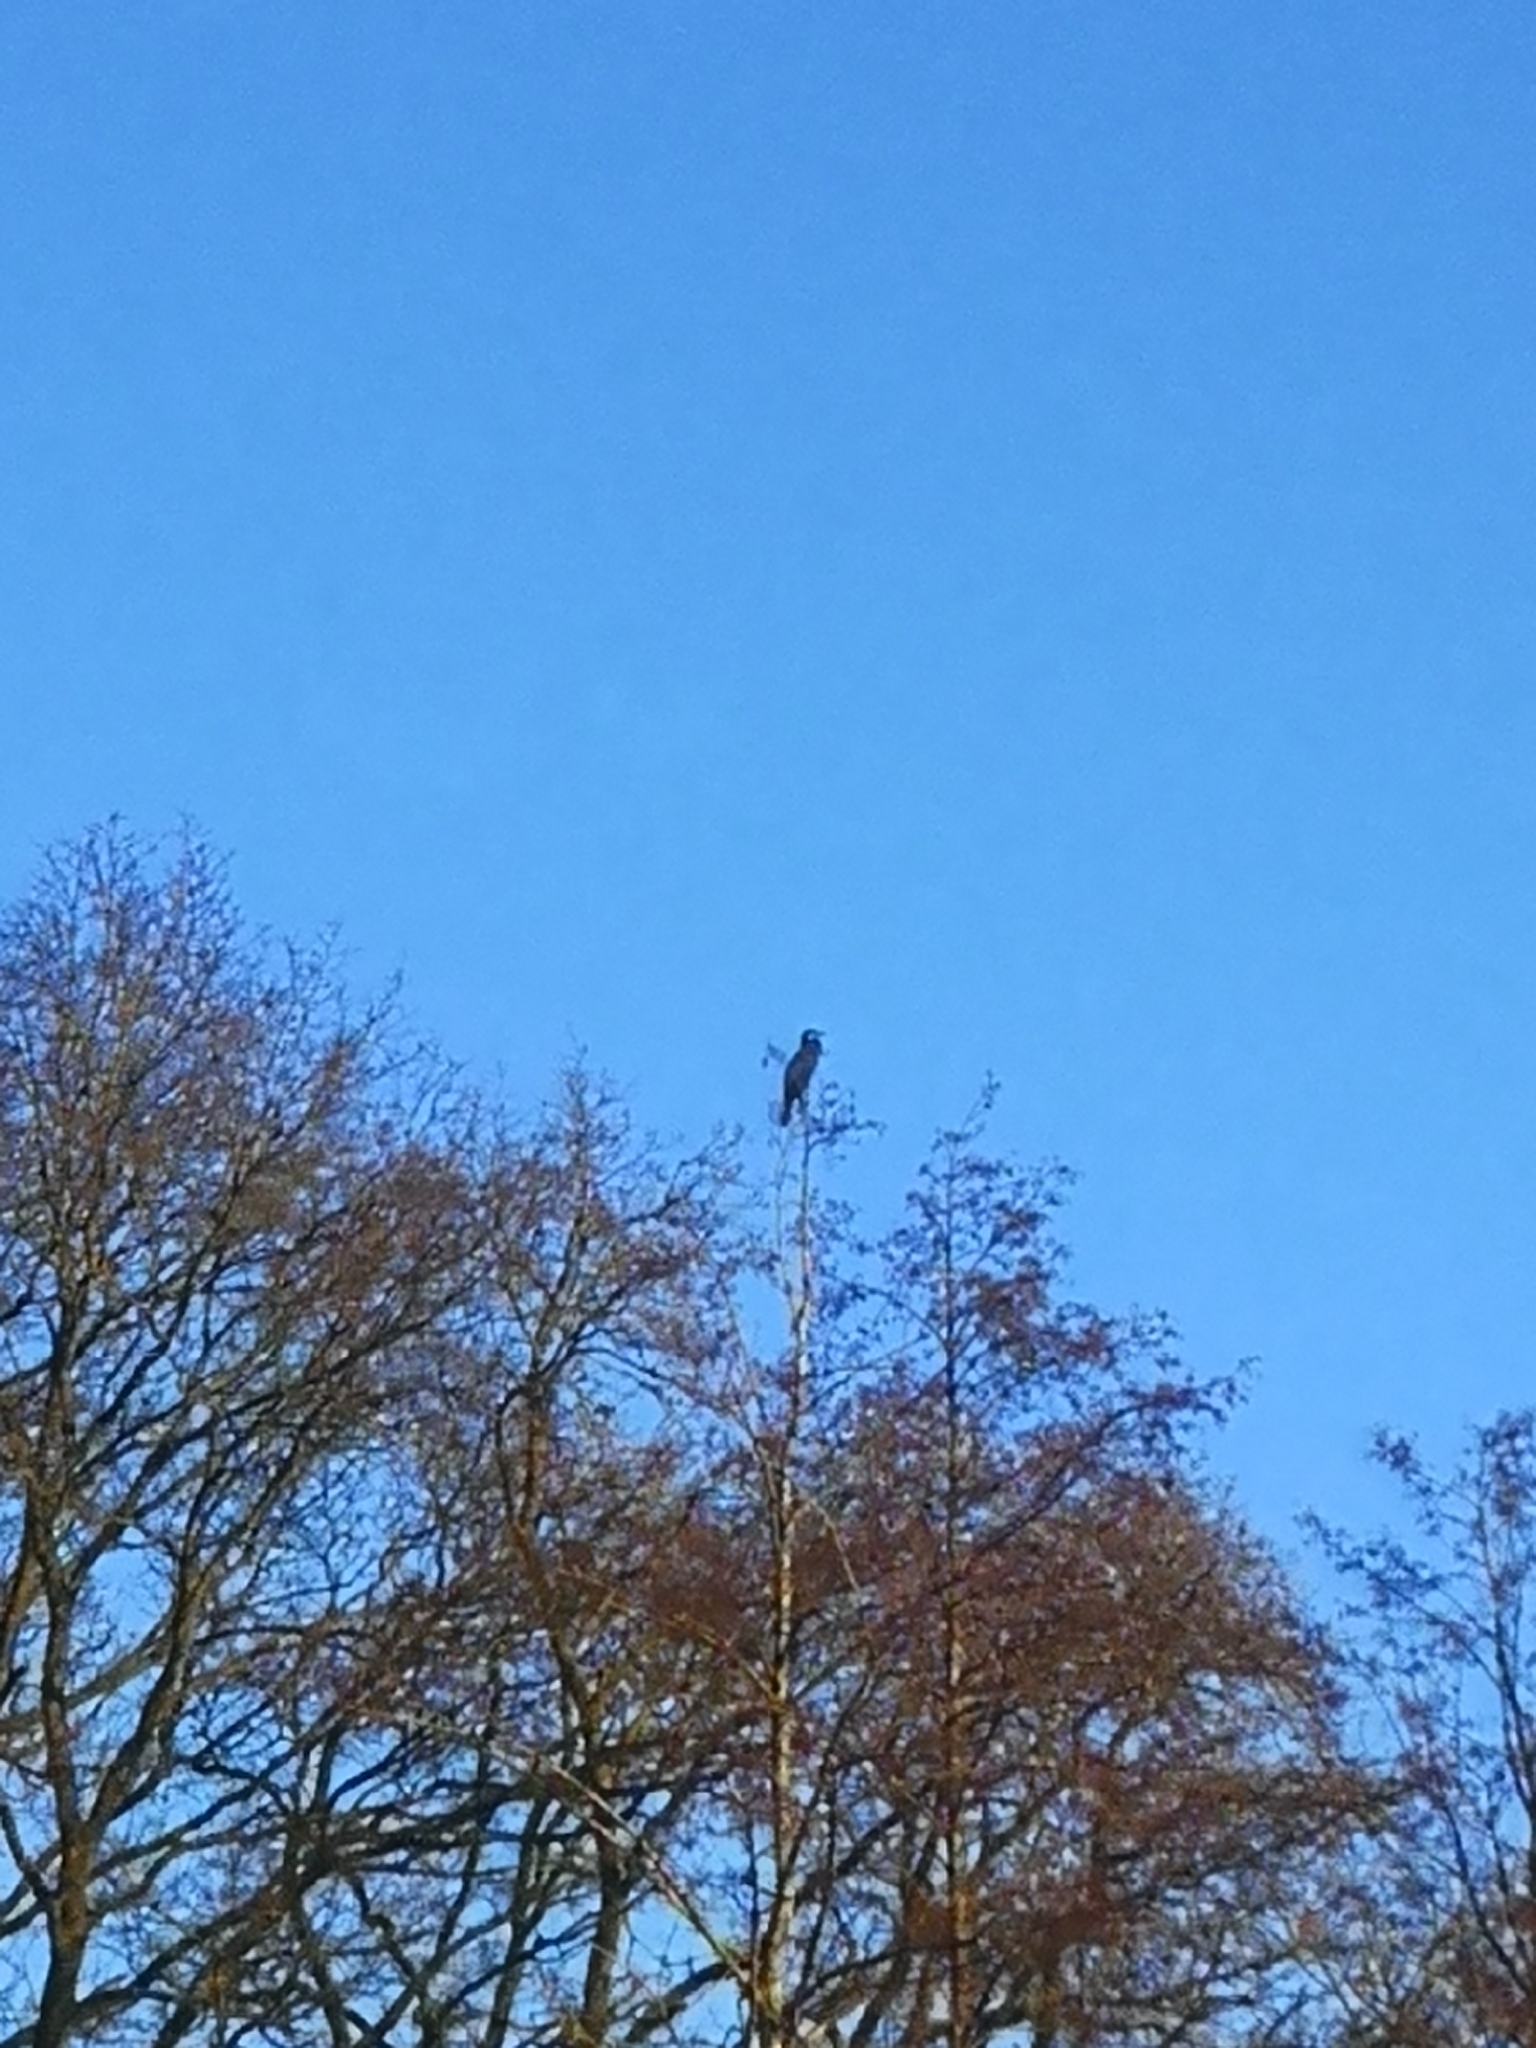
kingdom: Animalia
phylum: Chordata
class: Aves
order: Suliformes
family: Phalacrocoracidae
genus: Phalacrocorax
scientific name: Phalacrocorax carbo
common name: Great cormorant
